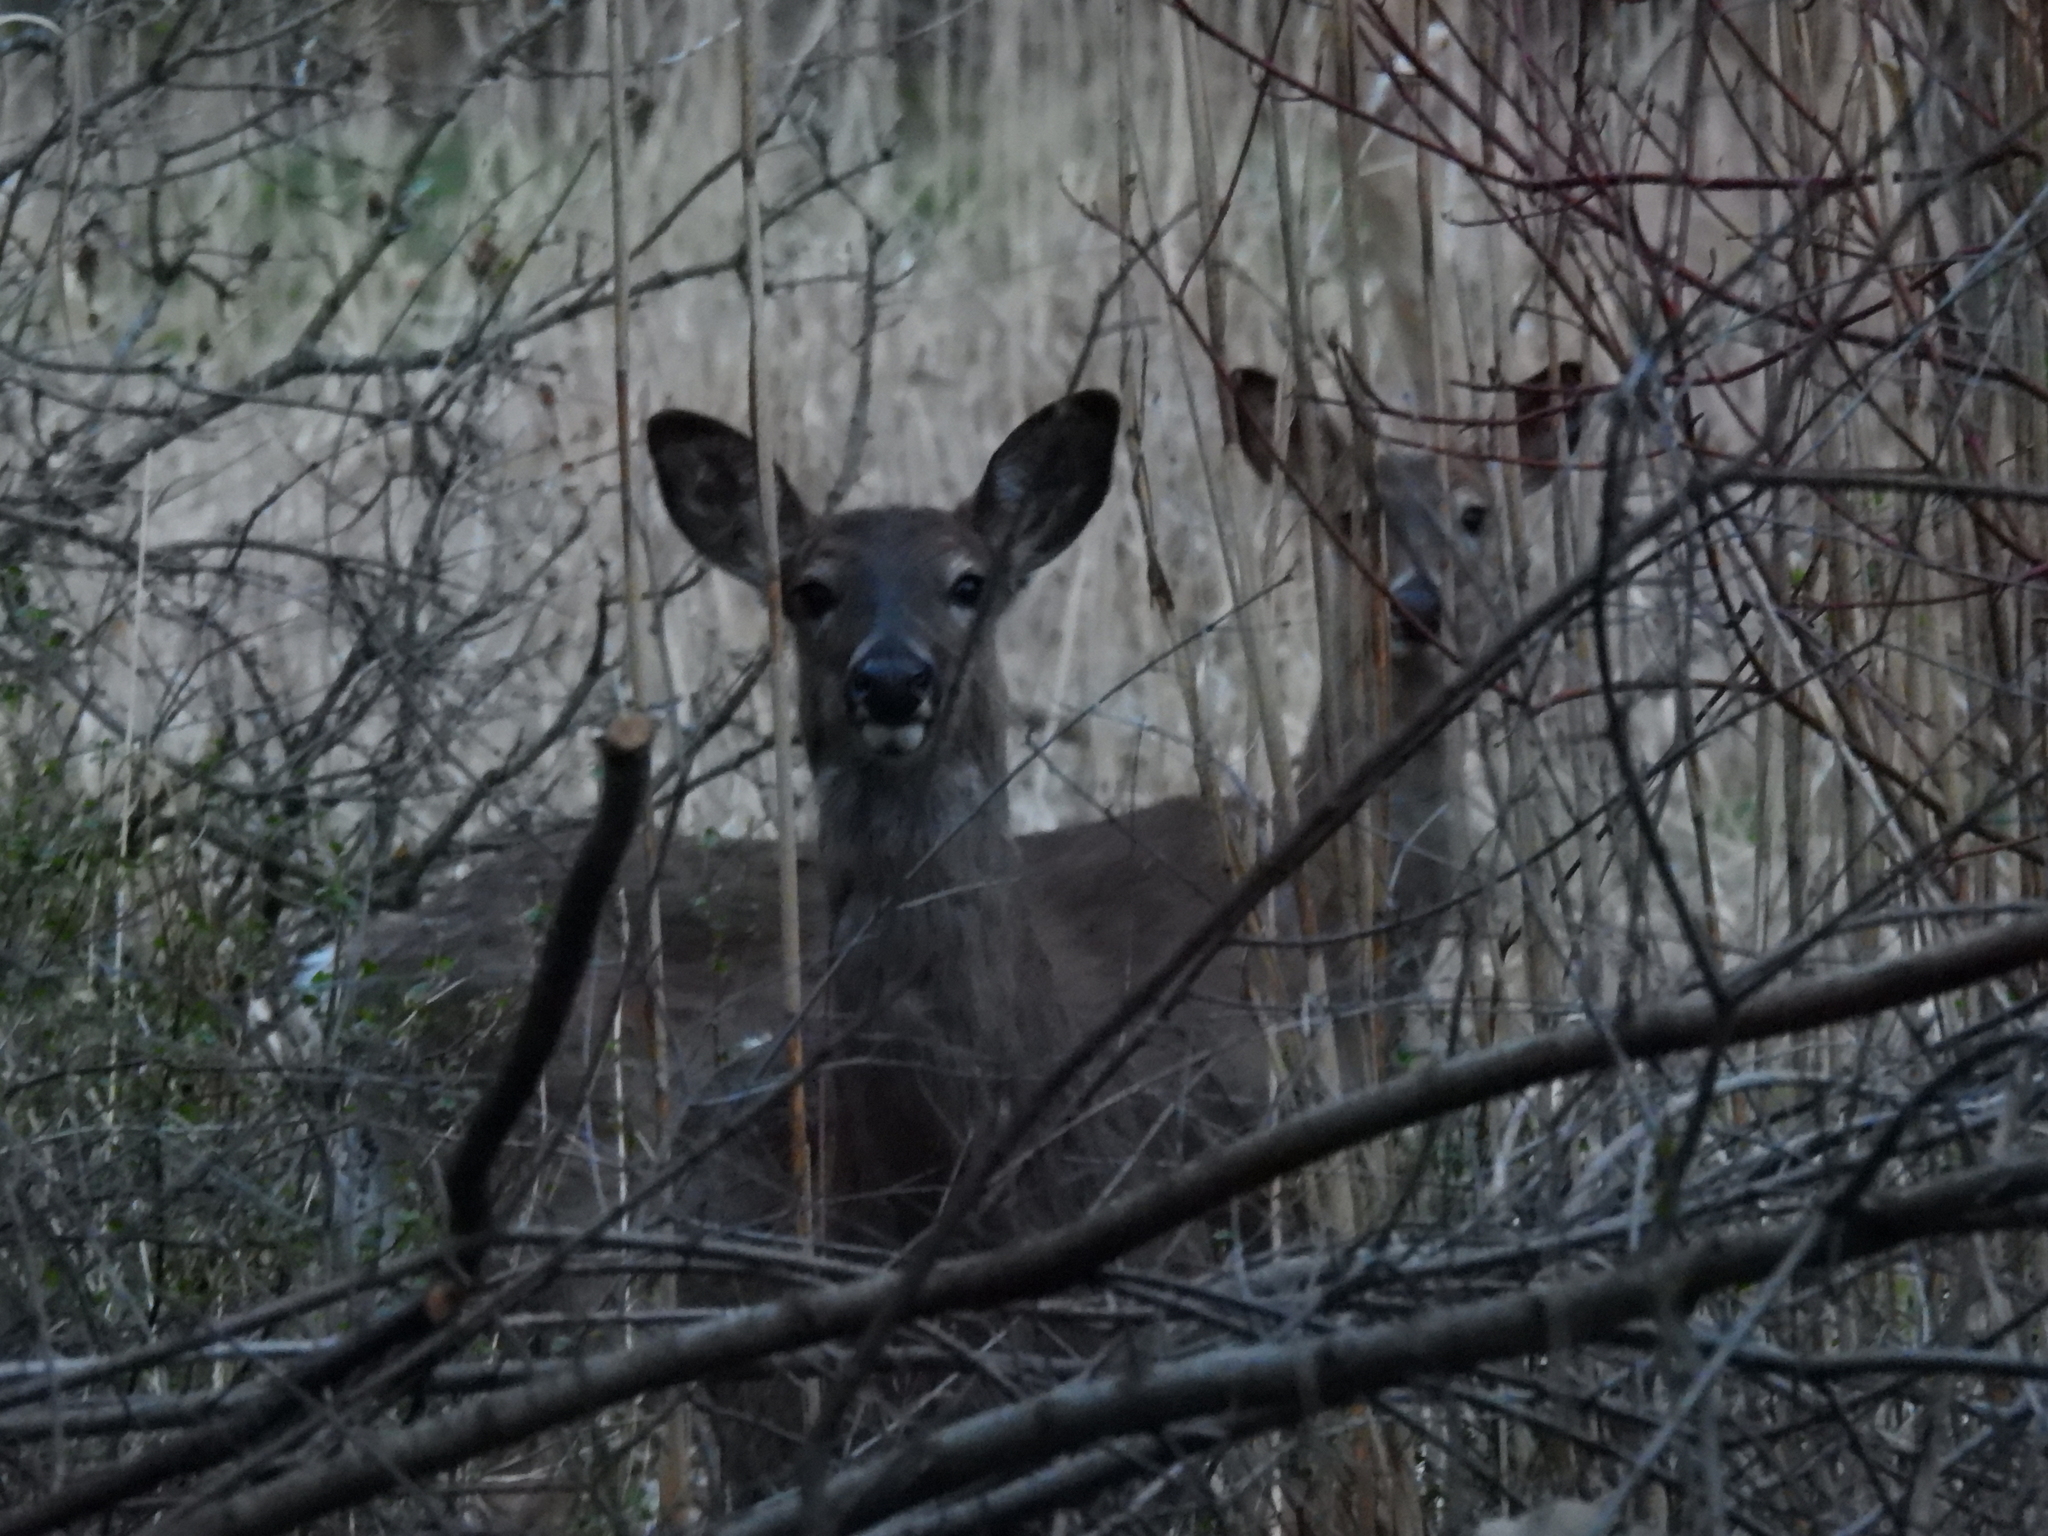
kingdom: Animalia
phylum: Chordata
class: Mammalia
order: Artiodactyla
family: Cervidae
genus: Odocoileus
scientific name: Odocoileus virginianus
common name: White-tailed deer
